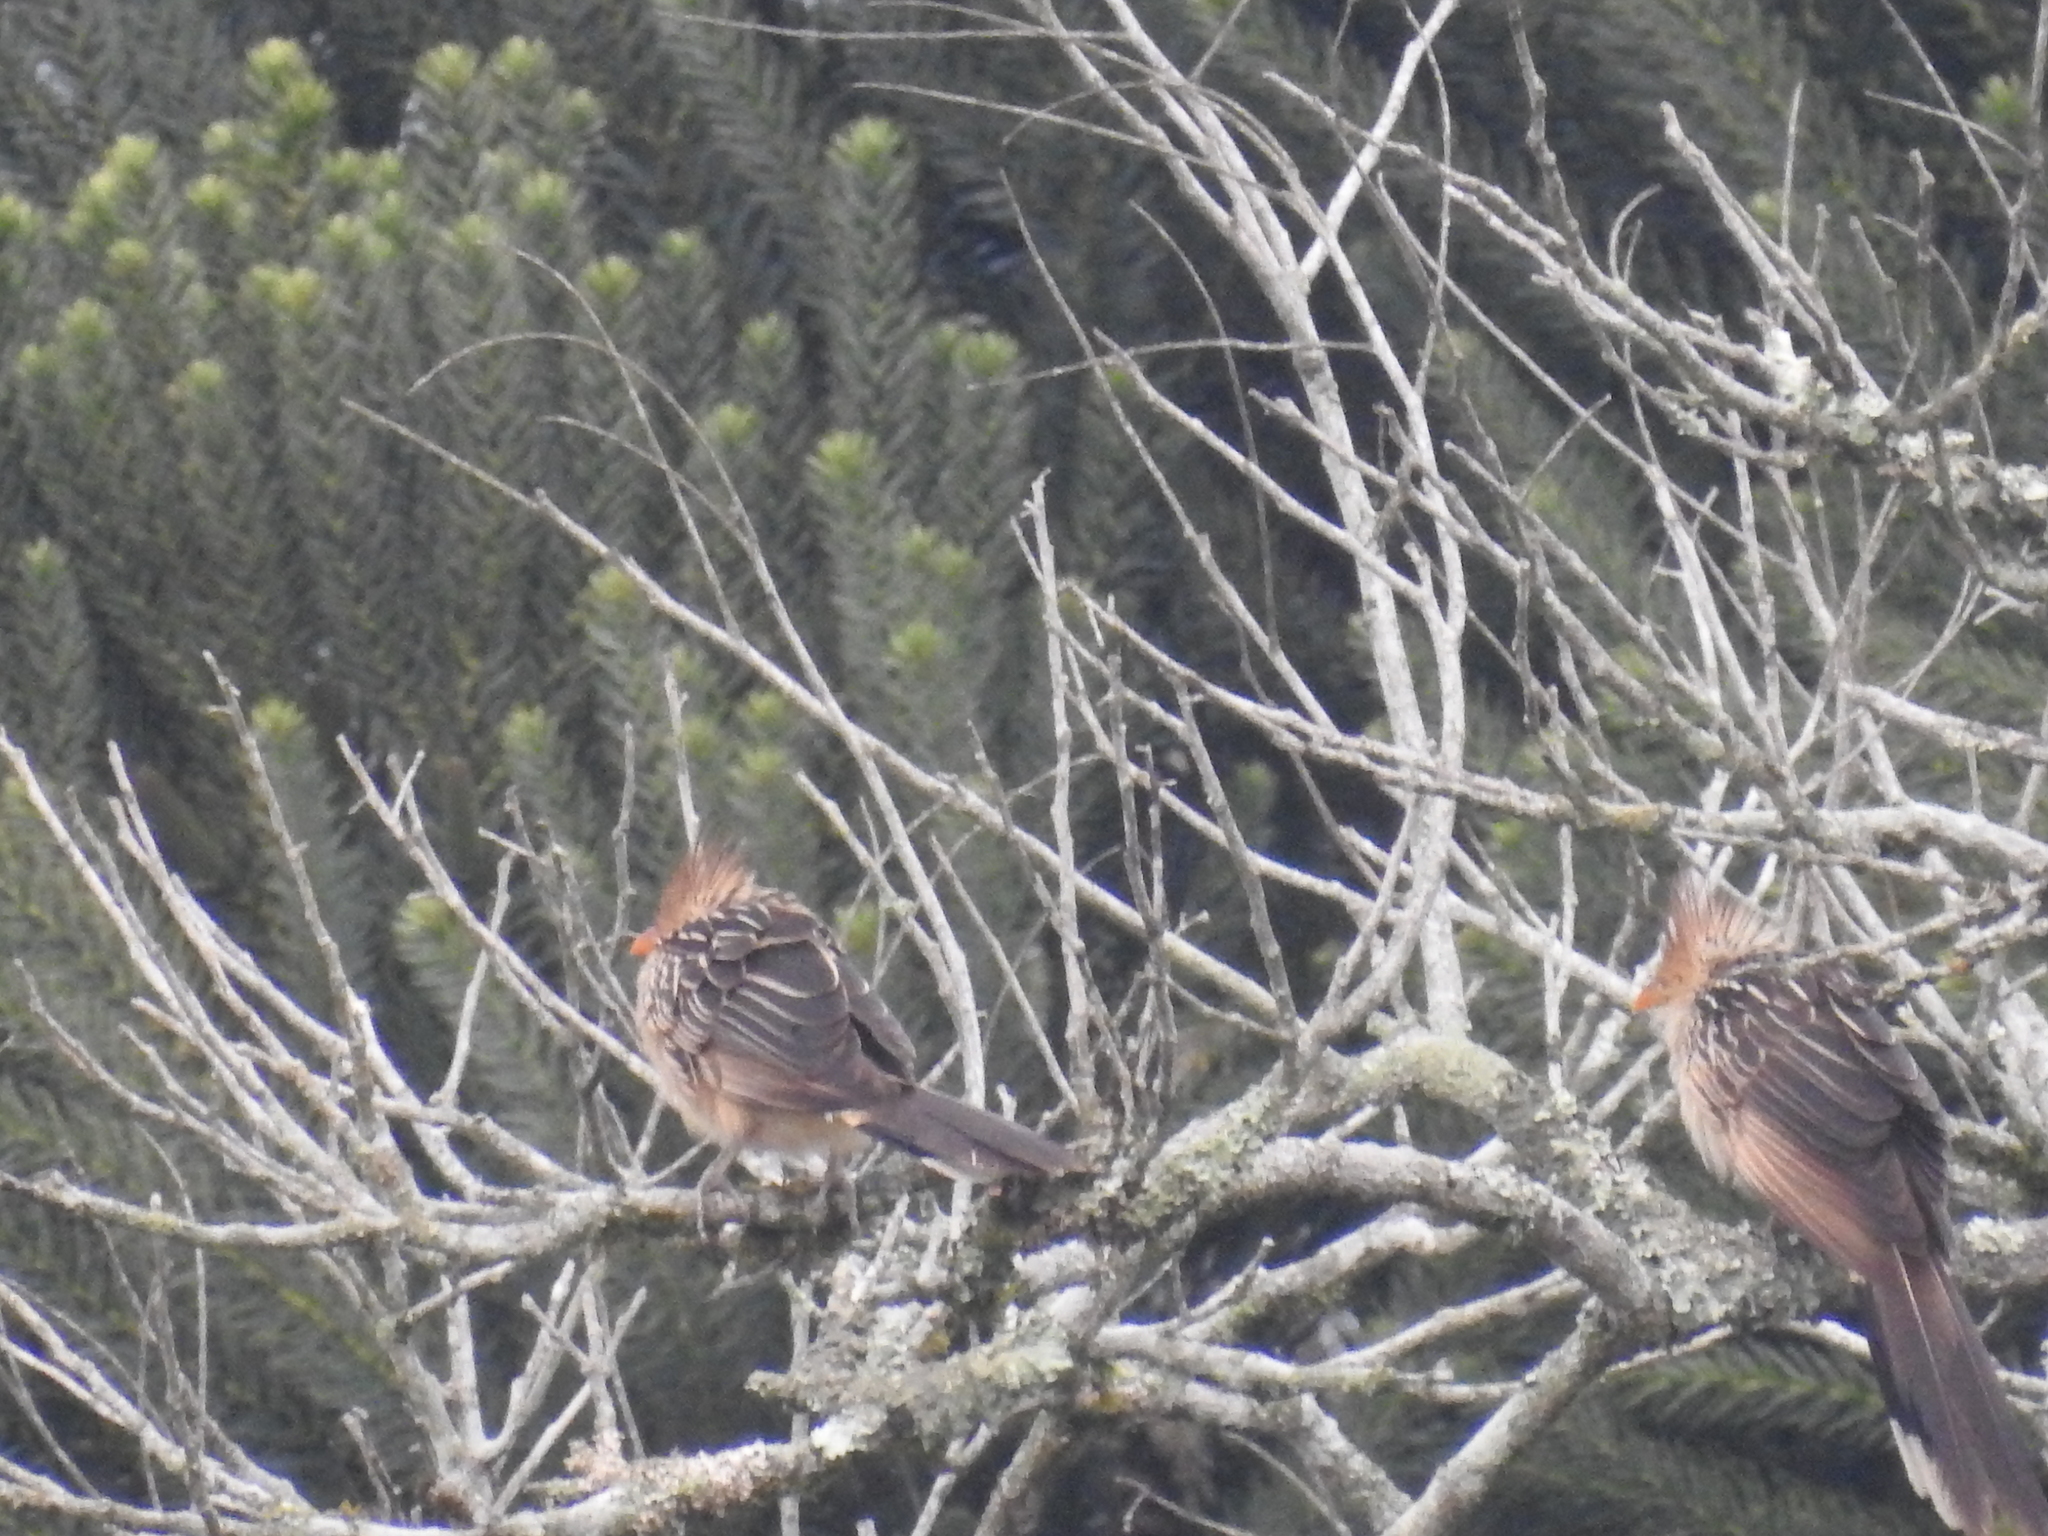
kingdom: Animalia
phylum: Chordata
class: Aves
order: Cuculiformes
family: Cuculidae
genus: Guira
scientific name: Guira guira
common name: Guira cuckoo
